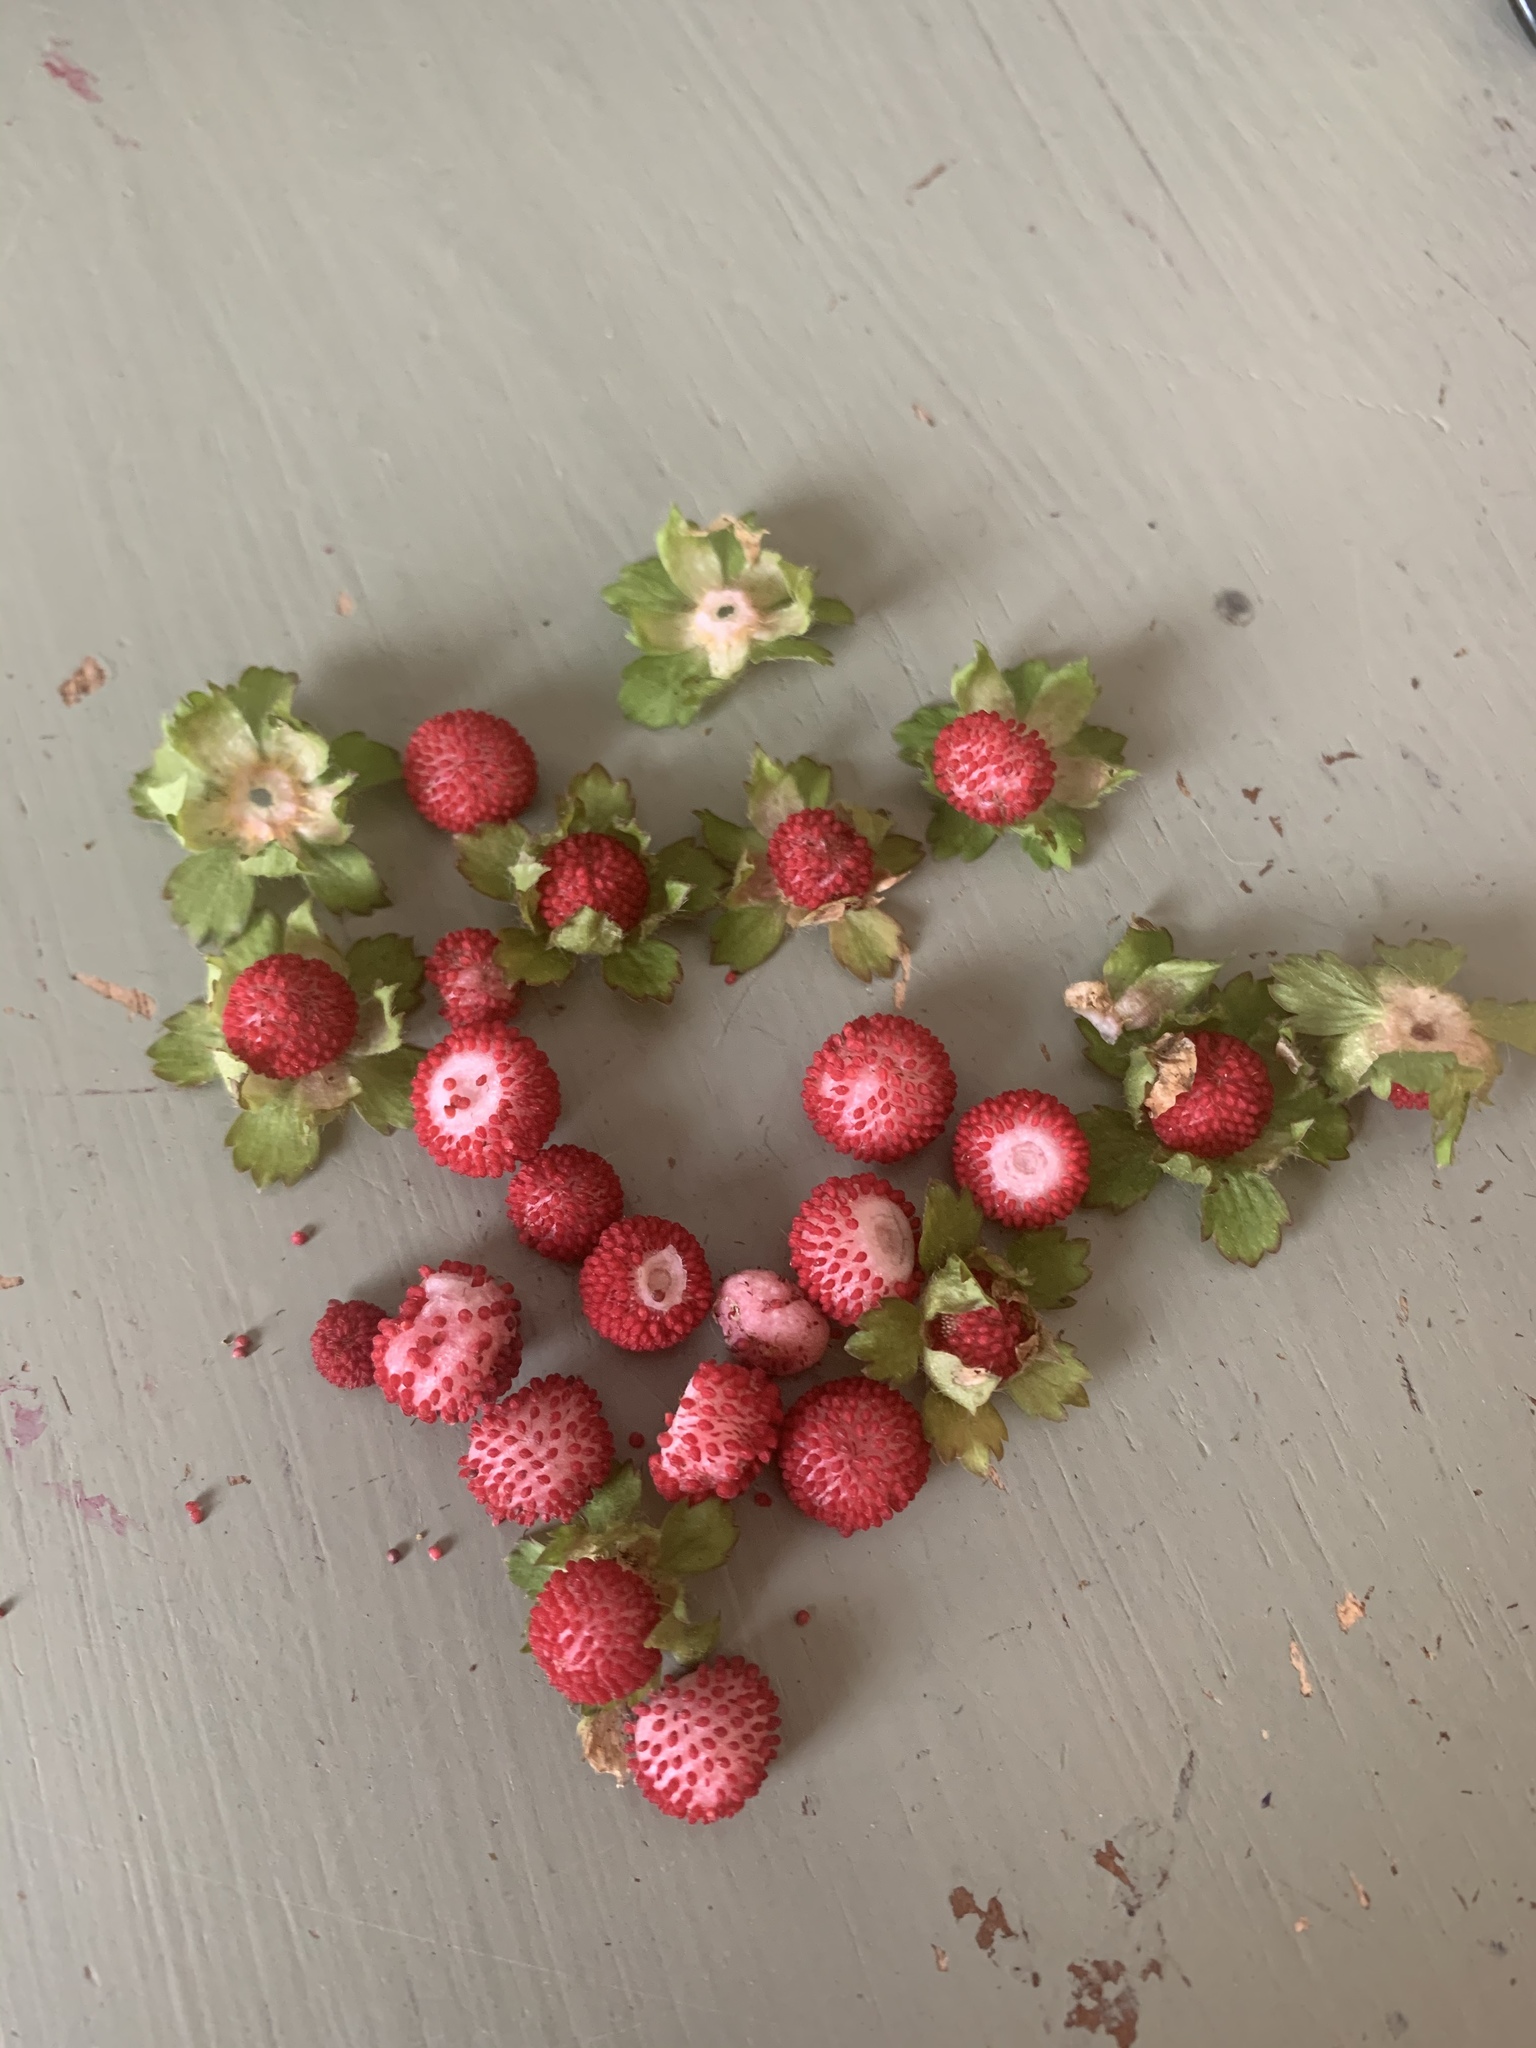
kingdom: Plantae
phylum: Tracheophyta
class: Magnoliopsida
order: Rosales
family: Rosaceae
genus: Potentilla
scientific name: Potentilla indica
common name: Yellow-flowered strawberry
